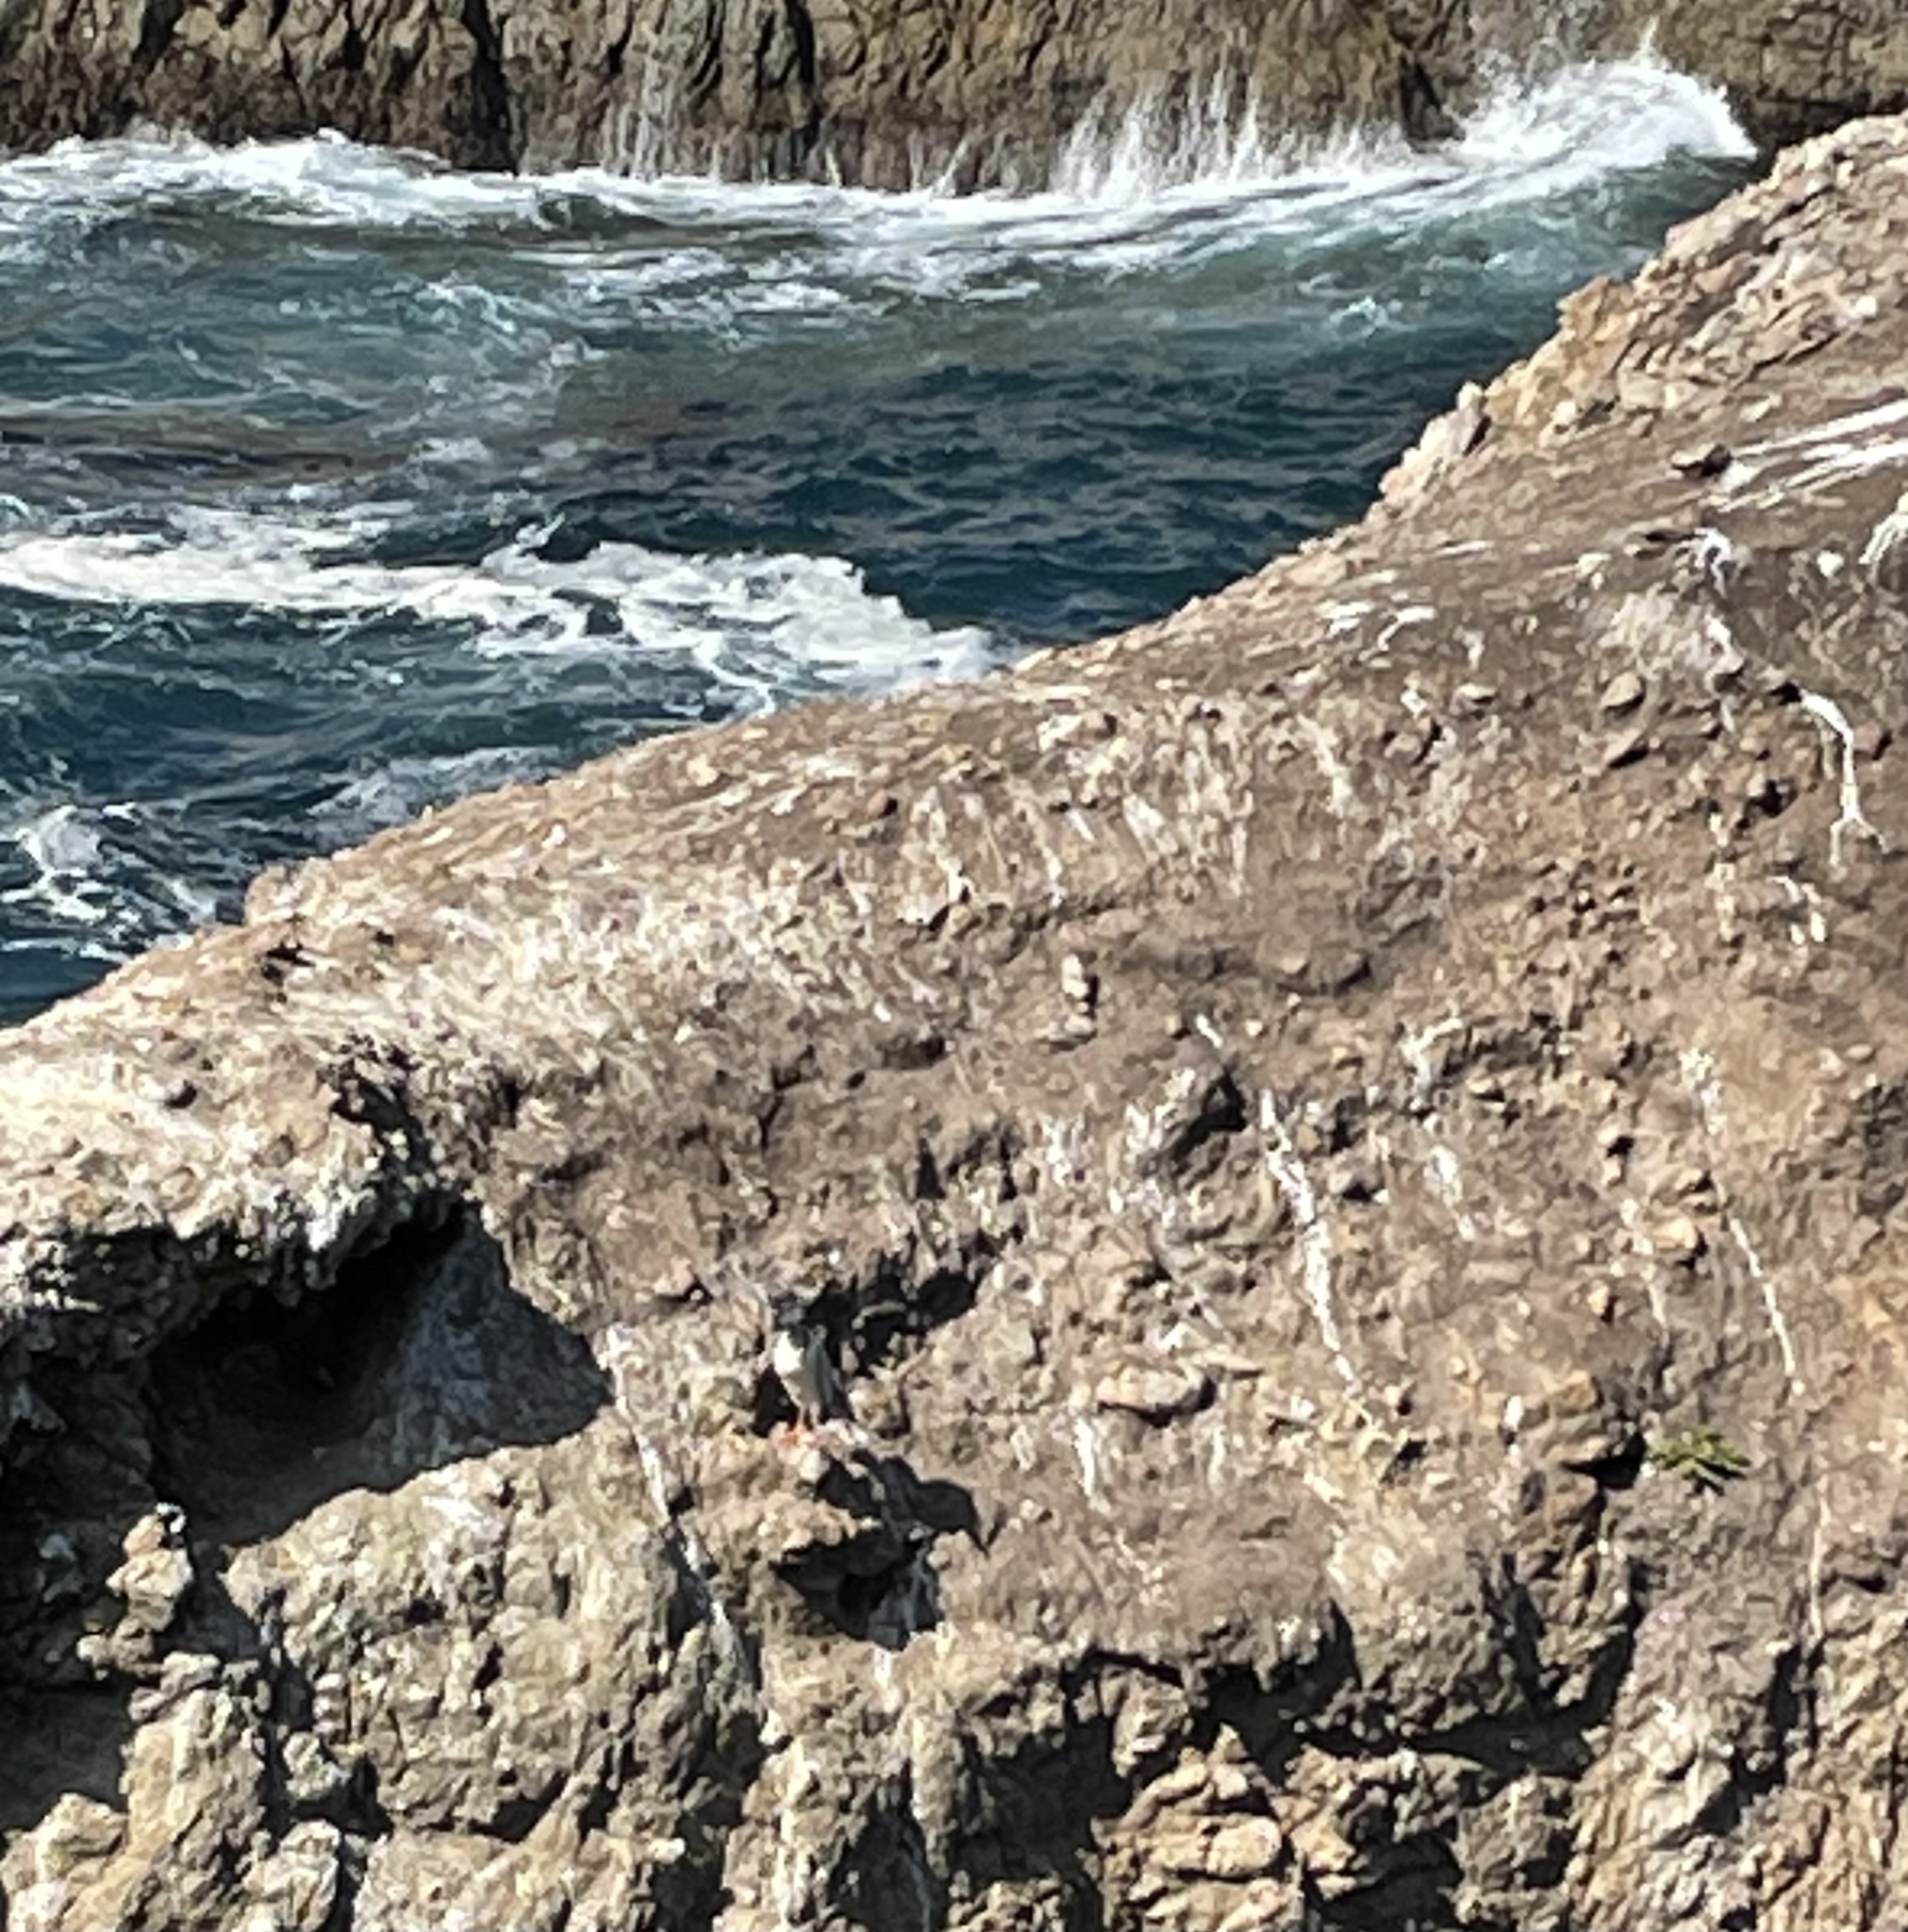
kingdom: Animalia
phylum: Chordata
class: Aves
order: Pelecaniformes
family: Ardeidae
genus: Nycticorax
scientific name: Nycticorax nycticorax
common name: Black-crowned night heron
